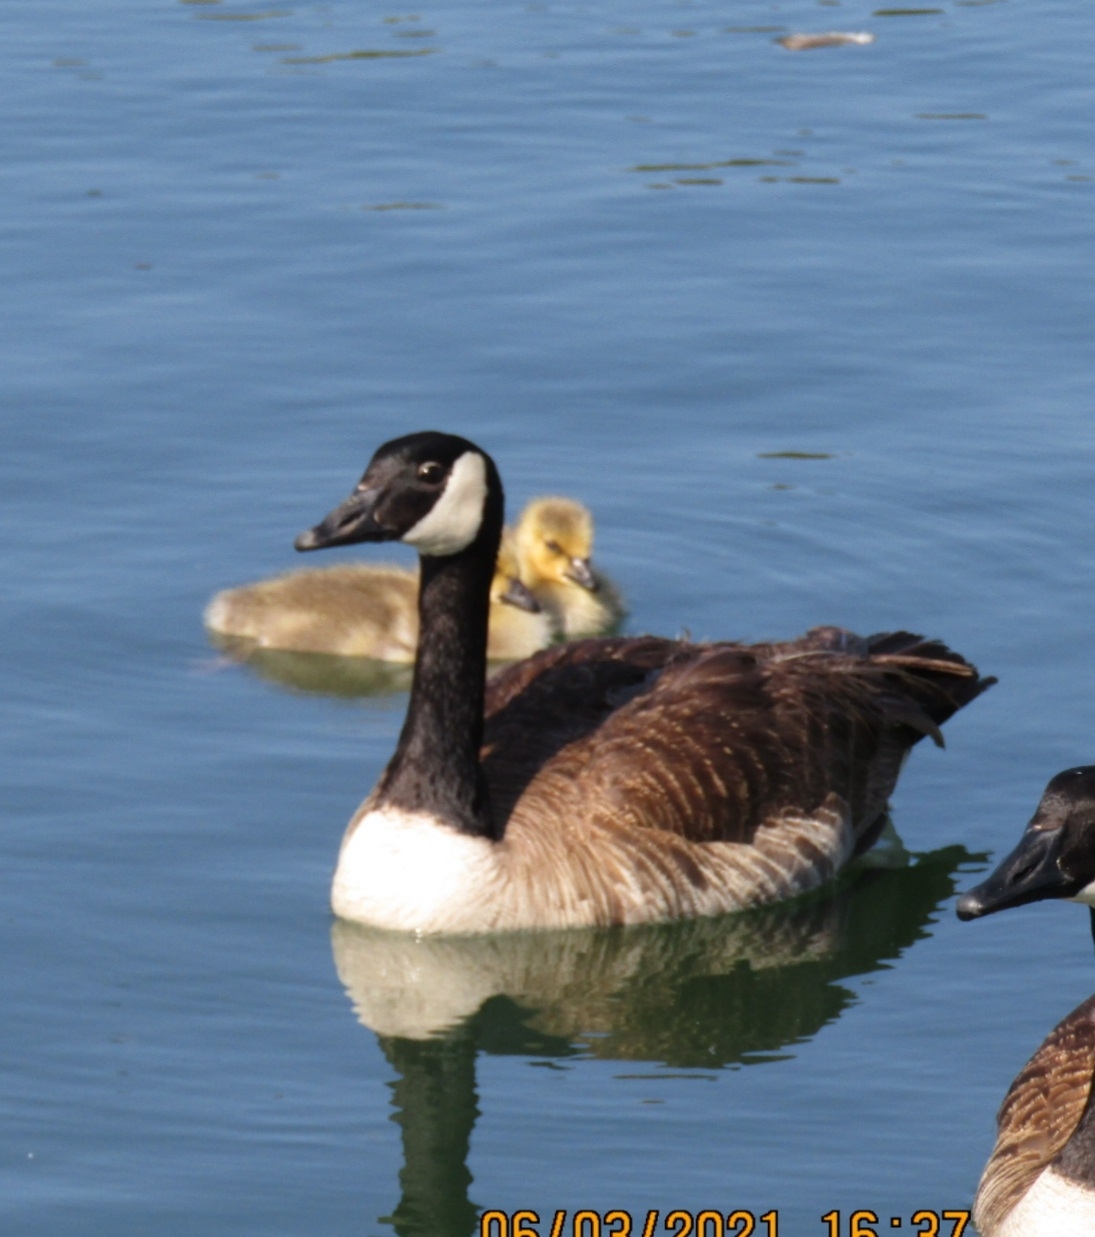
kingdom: Animalia
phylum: Chordata
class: Aves
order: Anseriformes
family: Anatidae
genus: Branta
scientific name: Branta canadensis
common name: Canada goose
